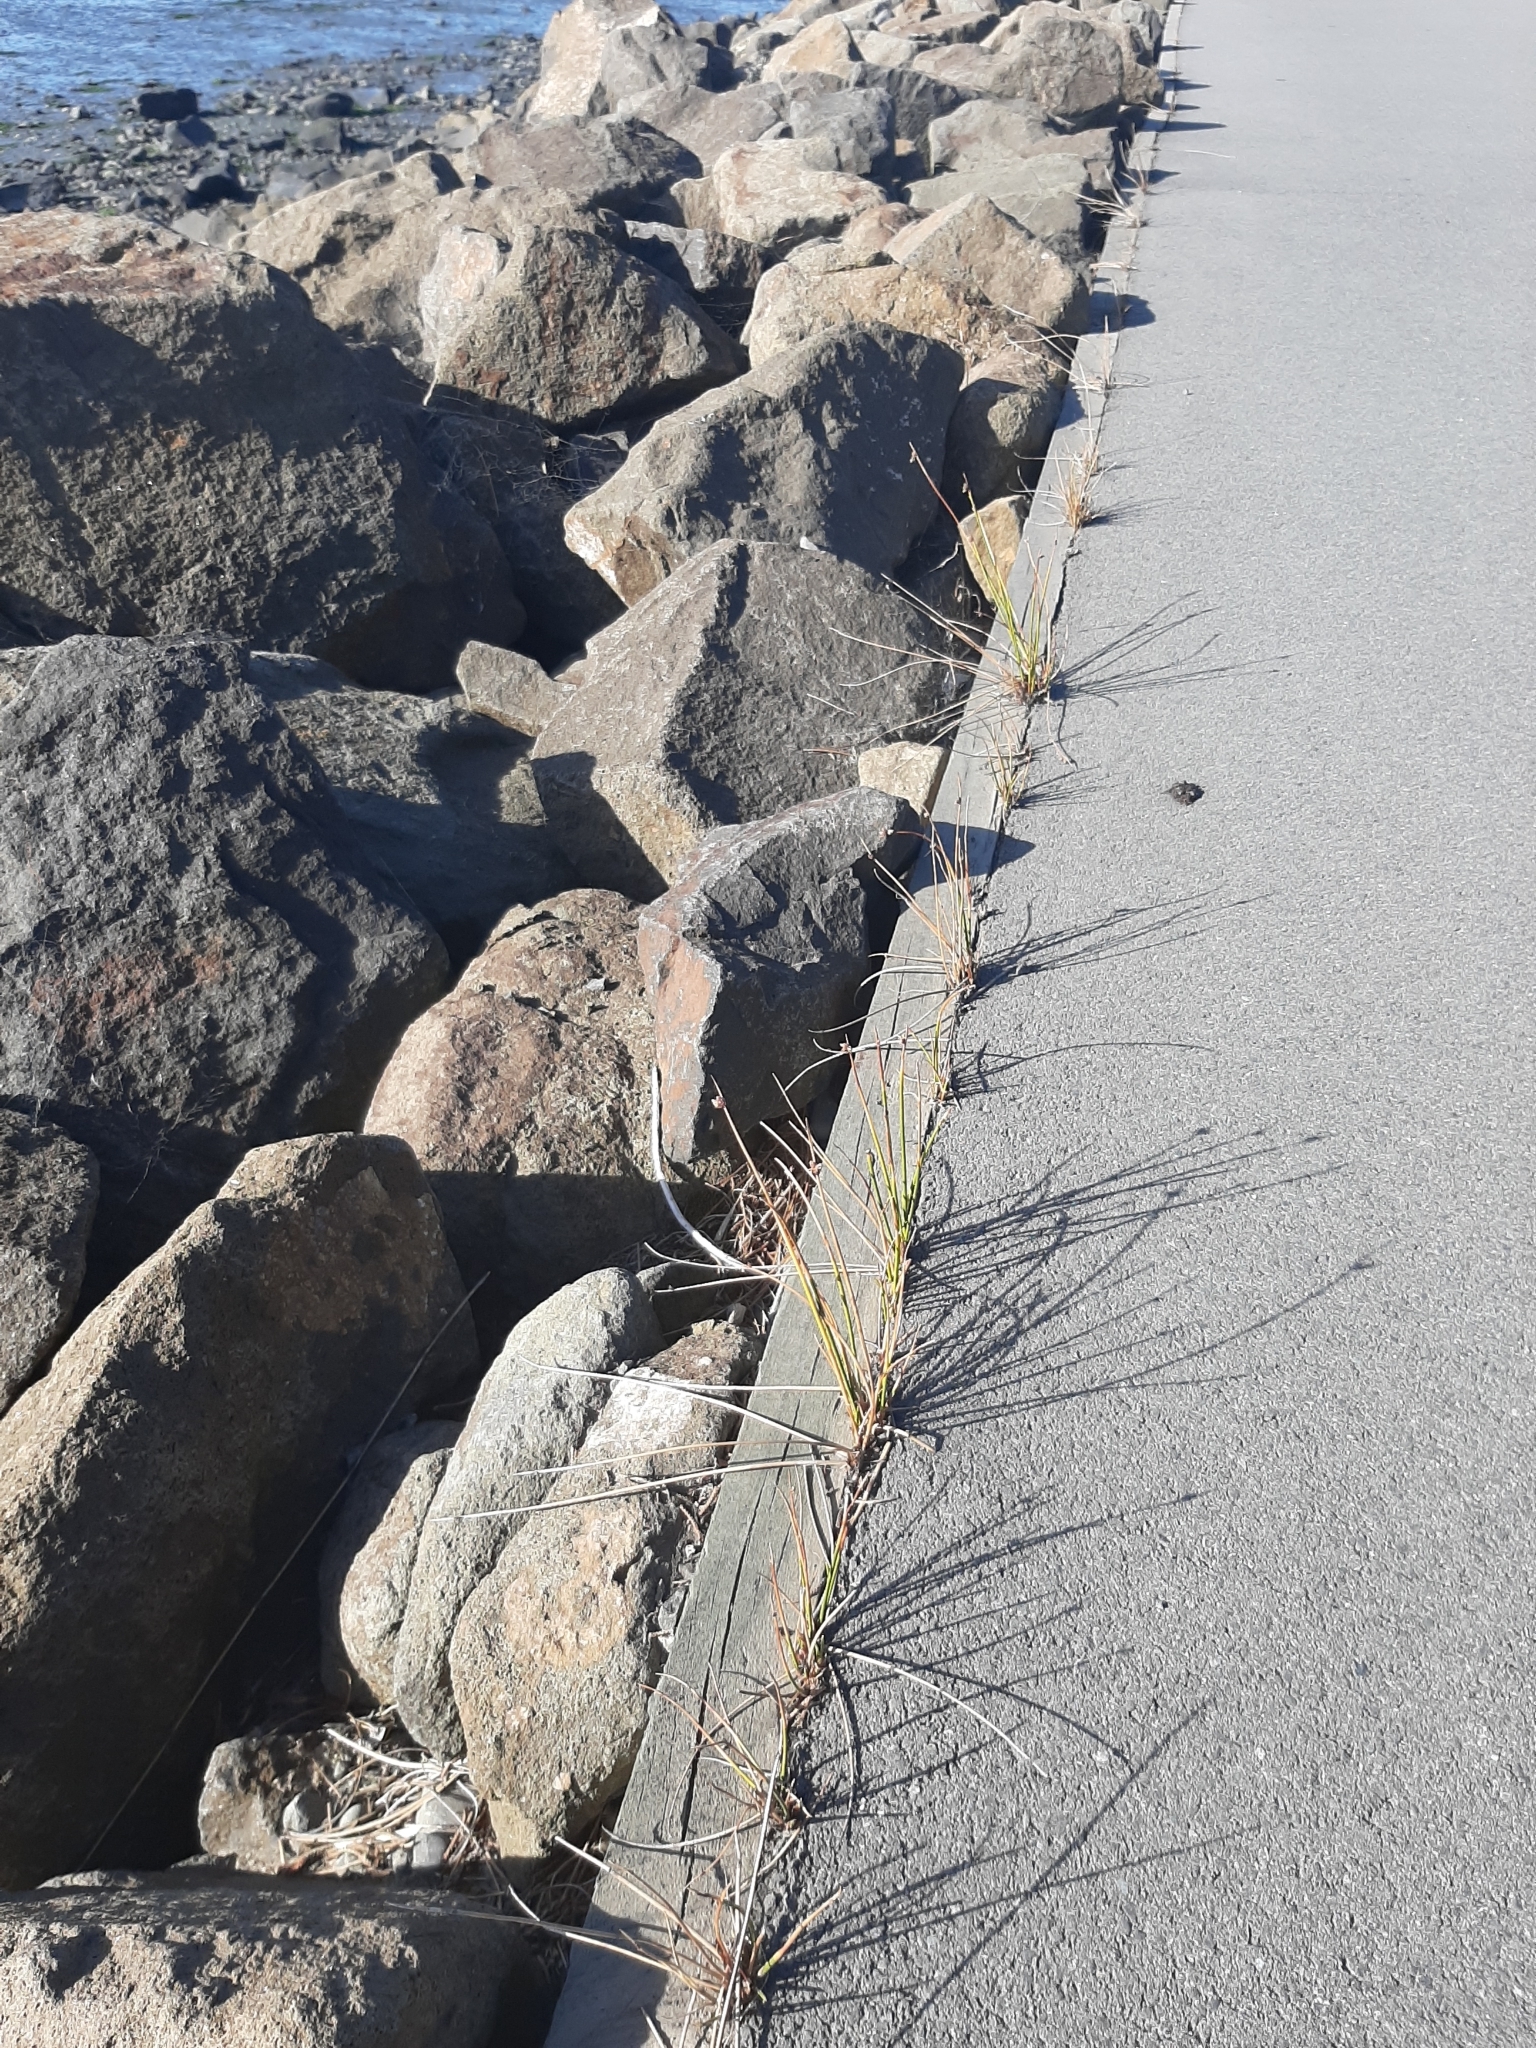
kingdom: Plantae
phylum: Tracheophyta
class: Liliopsida
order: Poales
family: Cyperaceae
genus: Ficinia
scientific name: Ficinia nodosa
